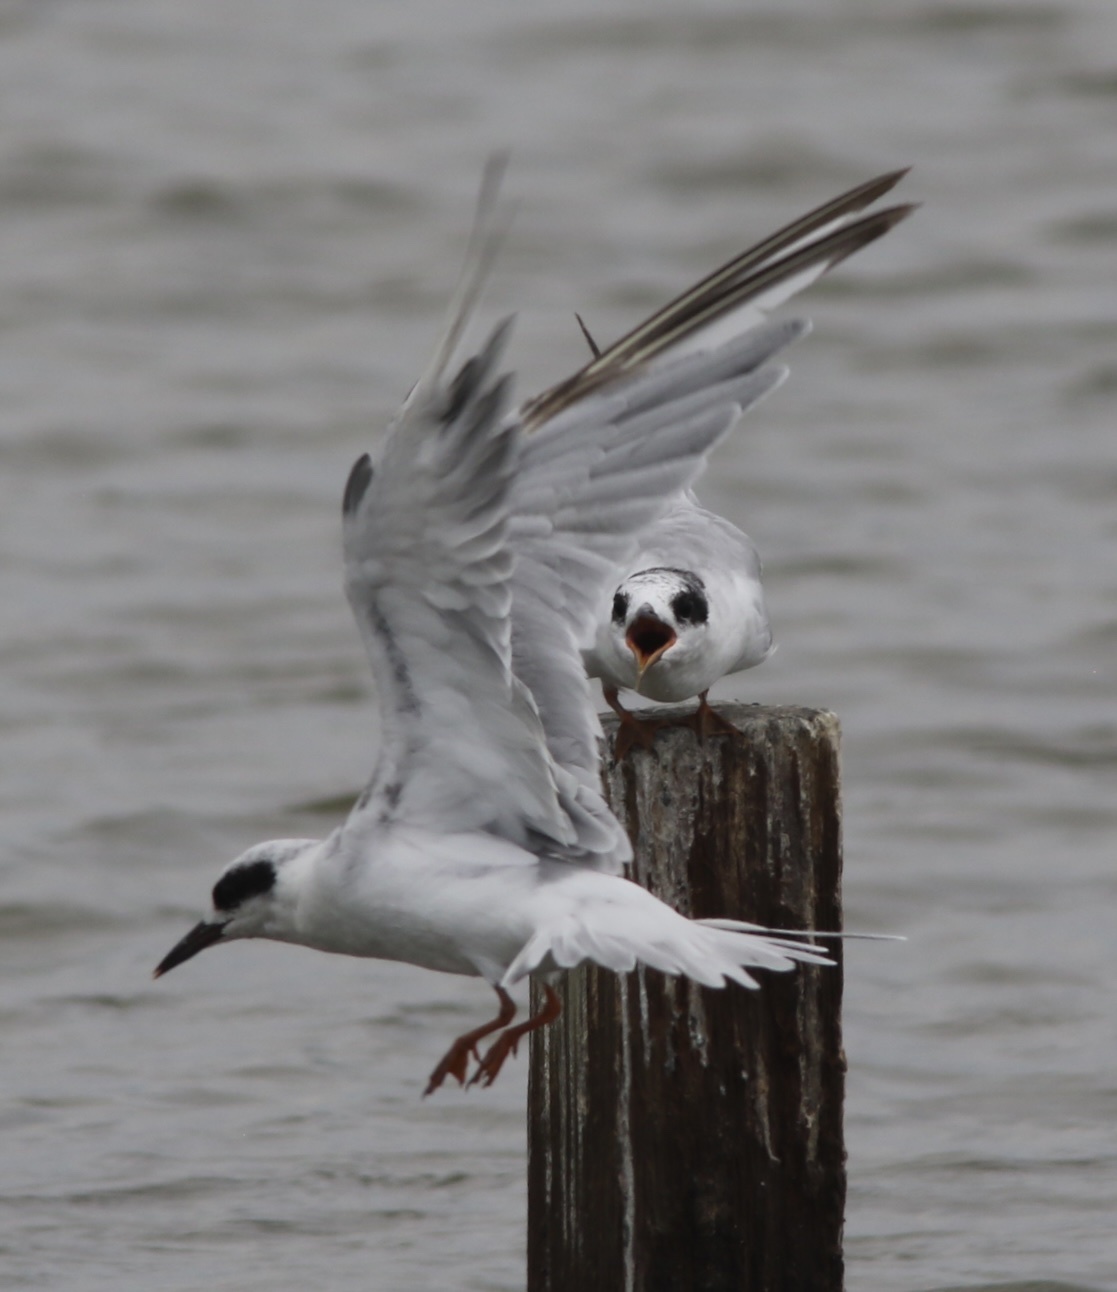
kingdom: Animalia
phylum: Chordata
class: Aves
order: Charadriiformes
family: Laridae
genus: Sterna
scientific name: Sterna forsteri
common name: Forster's tern
